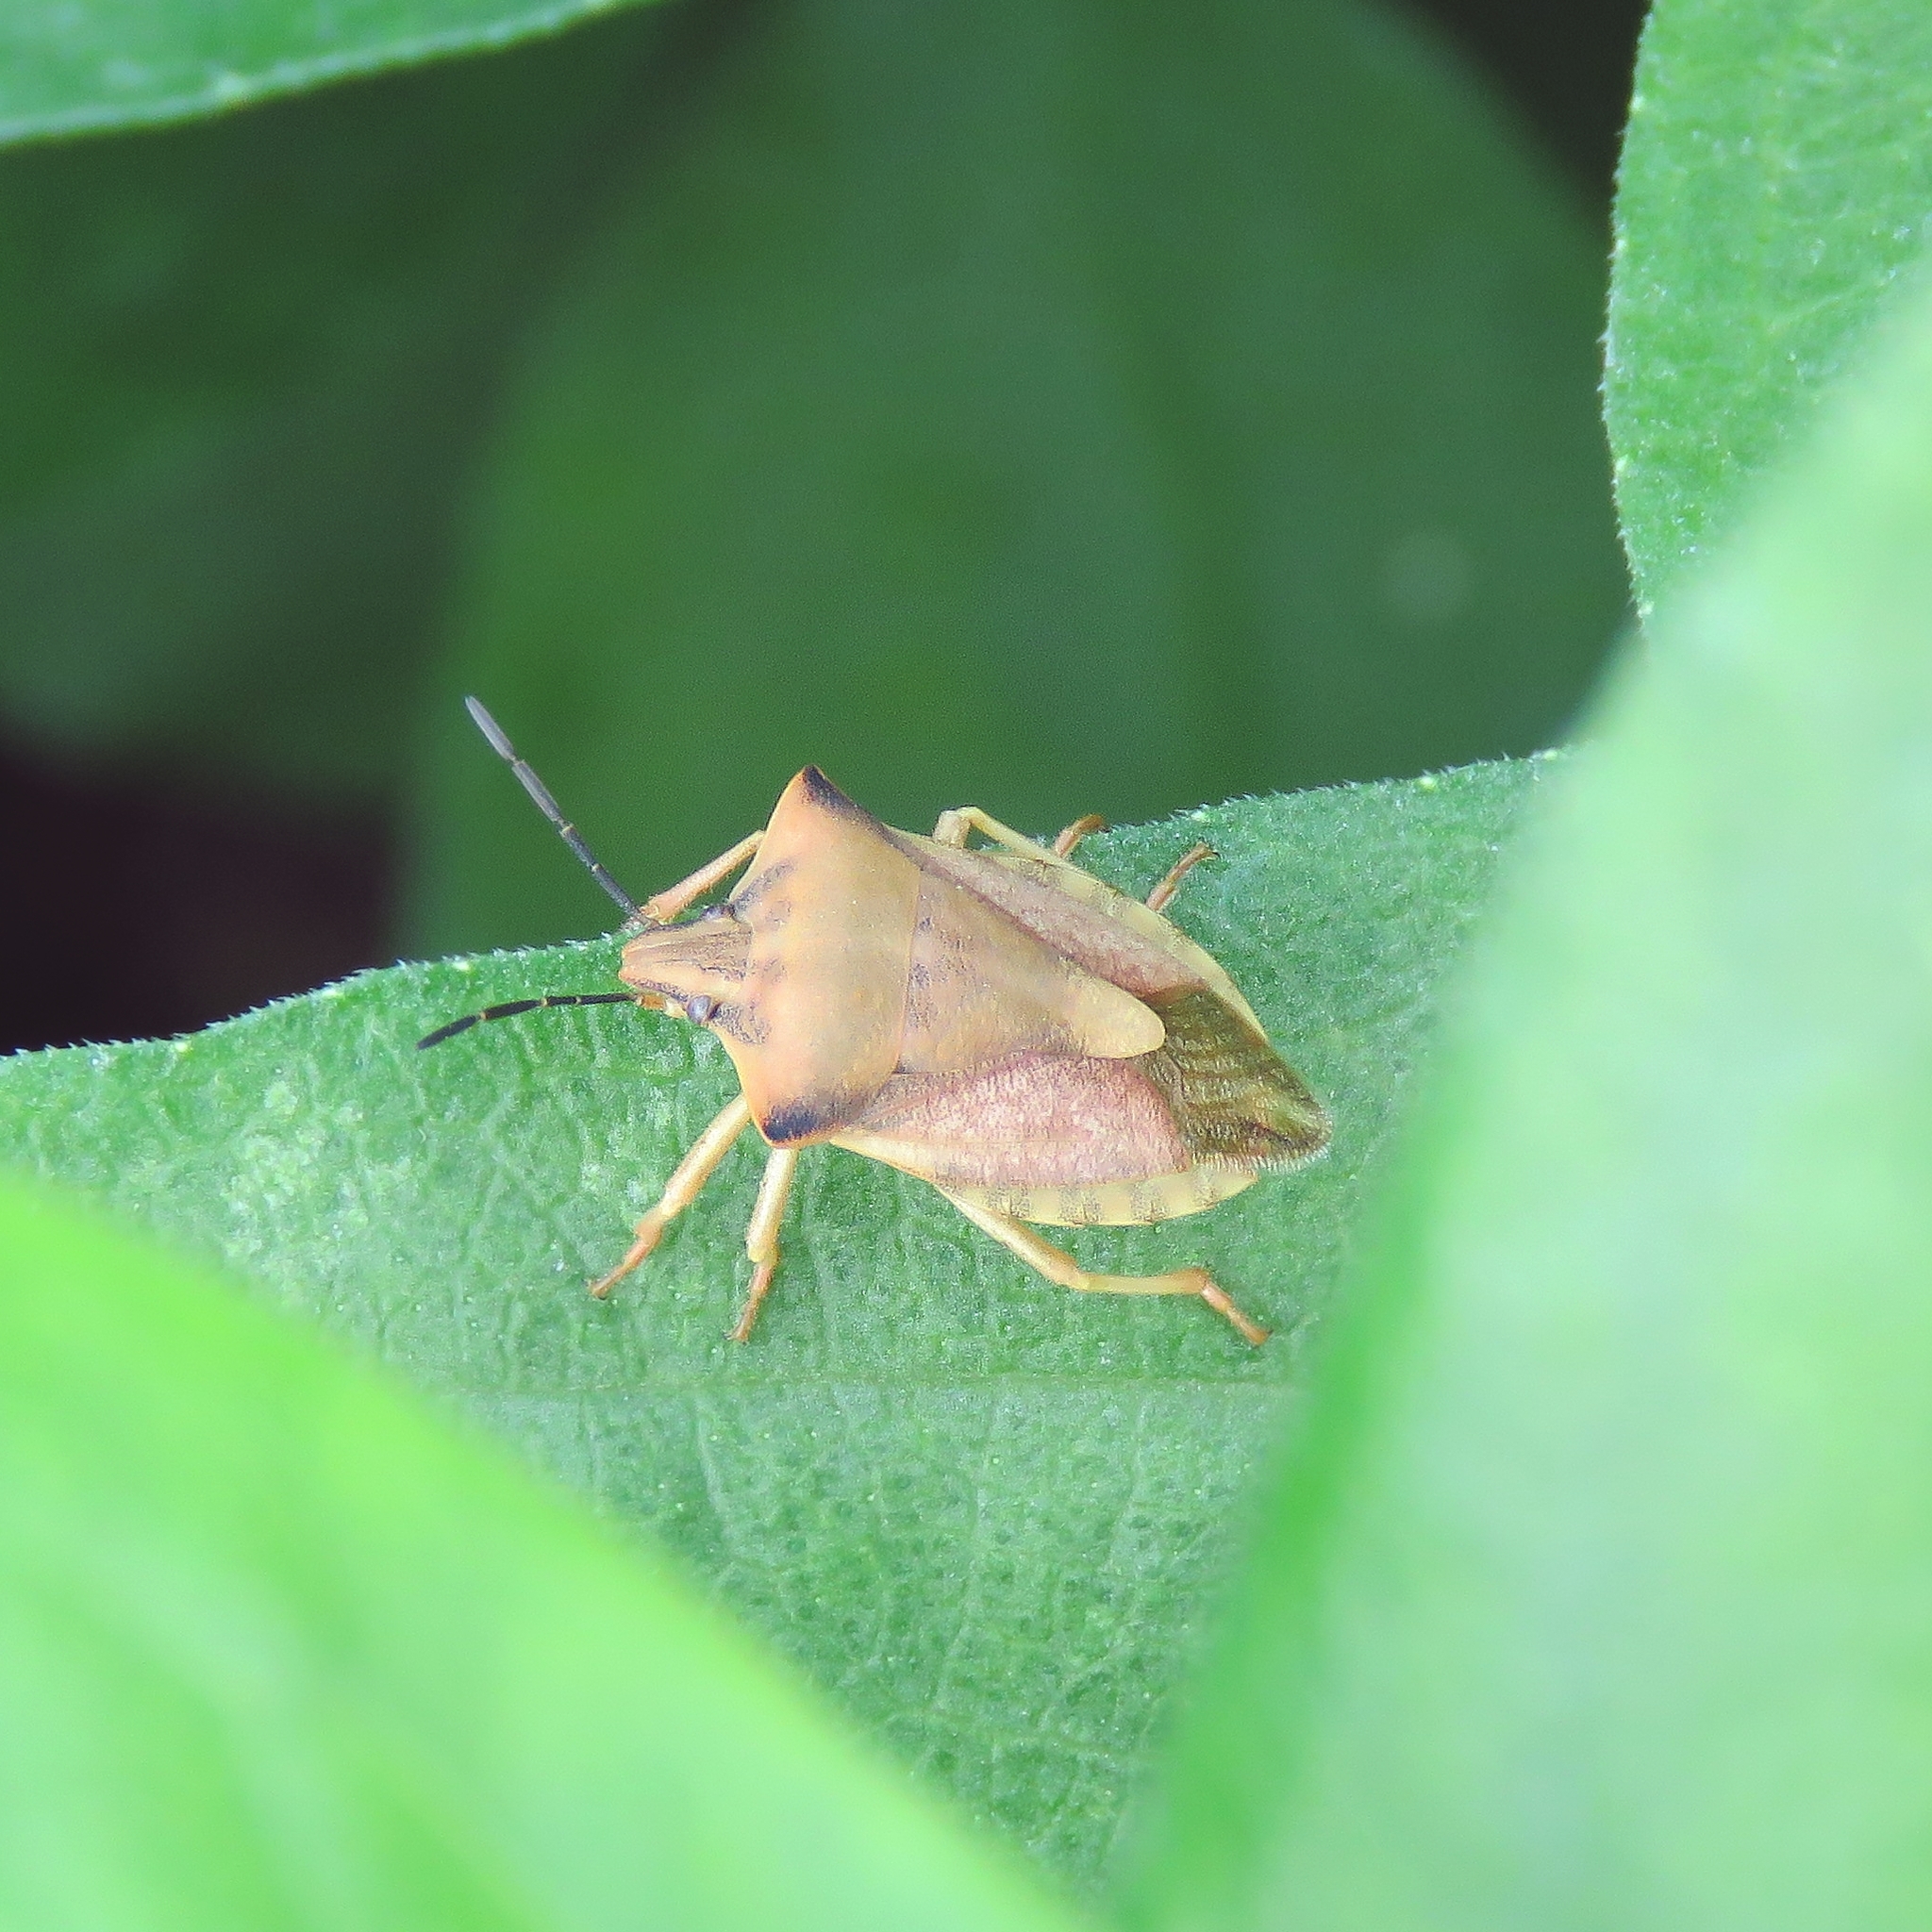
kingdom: Animalia
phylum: Arthropoda
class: Insecta
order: Hemiptera
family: Pentatomidae
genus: Carpocoris
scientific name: Carpocoris fuscispinus
